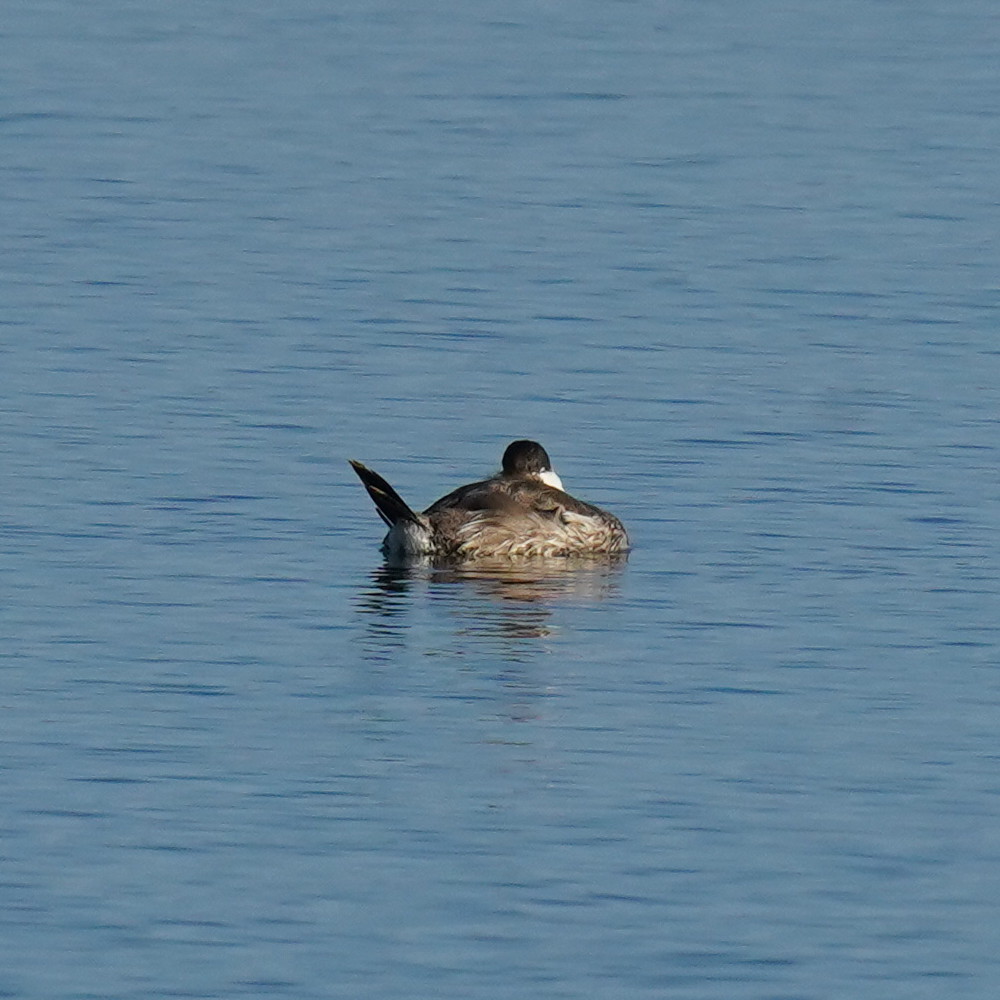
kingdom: Animalia
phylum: Chordata
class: Aves
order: Anseriformes
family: Anatidae
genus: Oxyura
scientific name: Oxyura jamaicensis
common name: Ruddy duck
